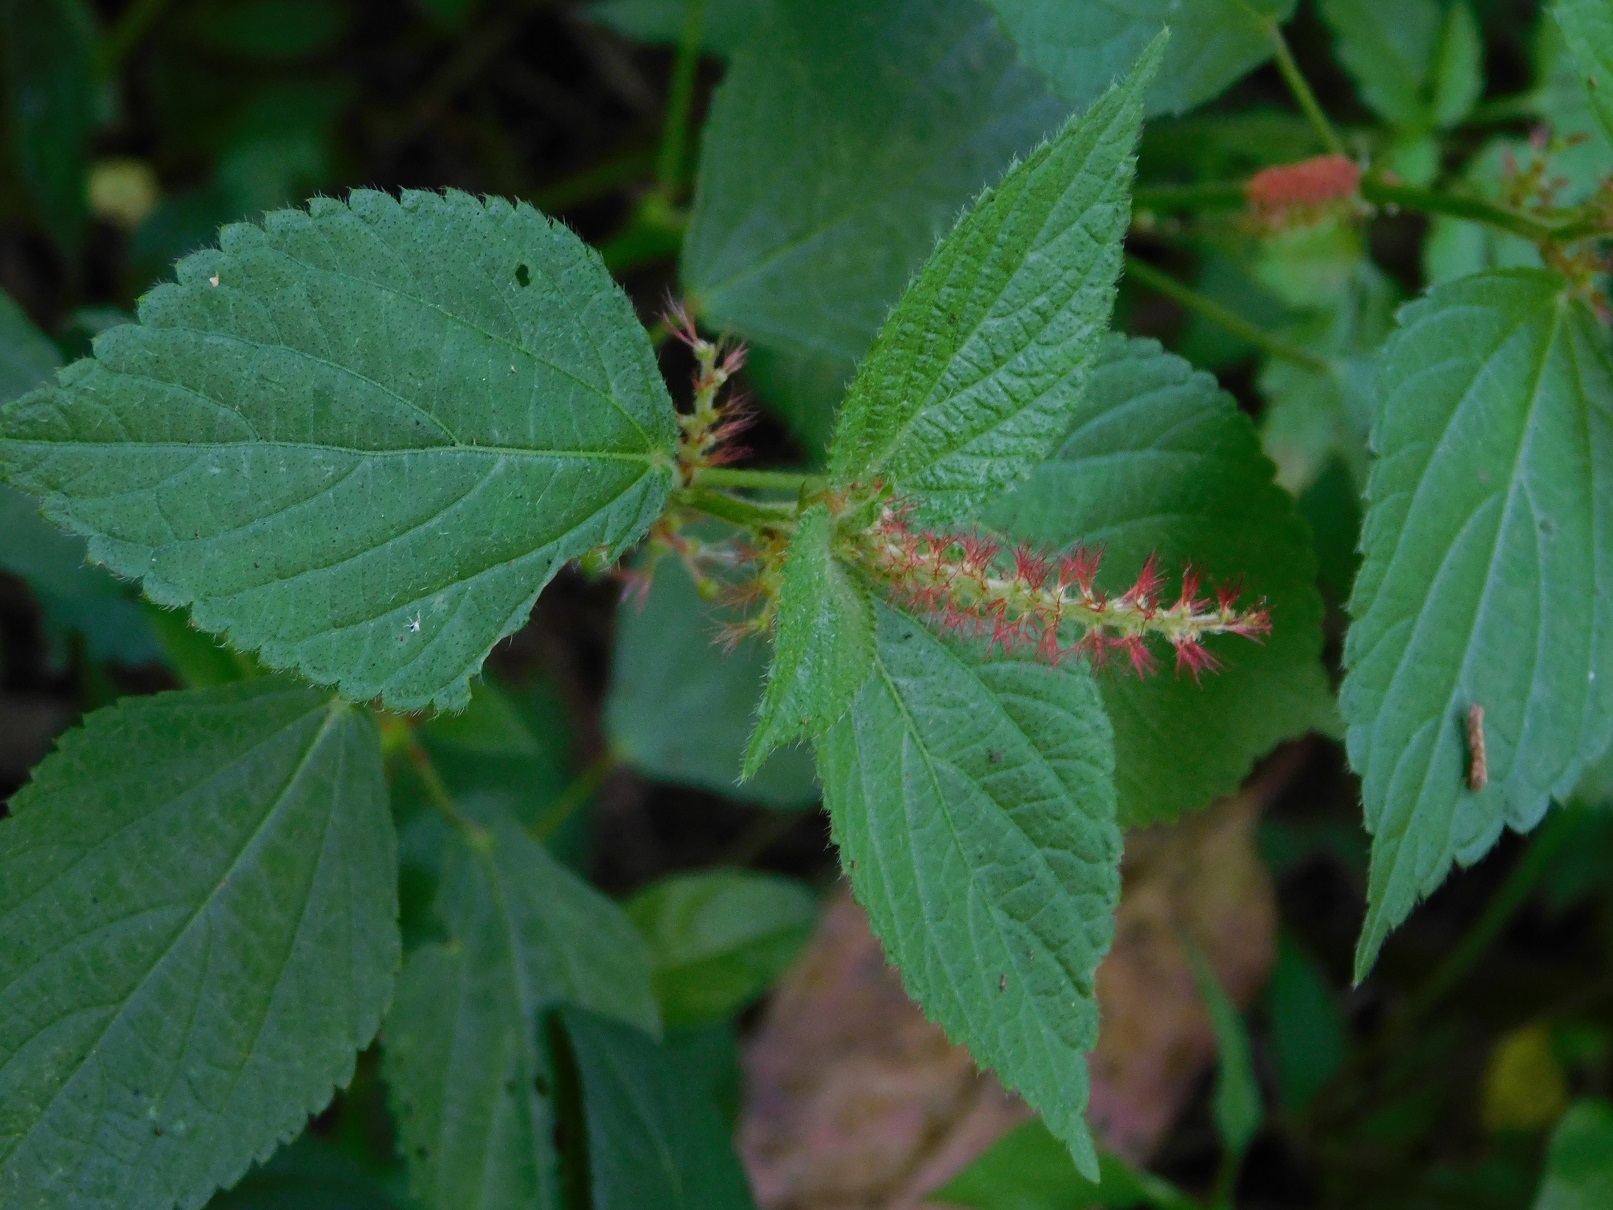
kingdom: Plantae
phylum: Tracheophyta
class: Magnoliopsida
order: Malpighiales
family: Euphorbiaceae
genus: Acalypha
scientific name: Acalypha phleoides
